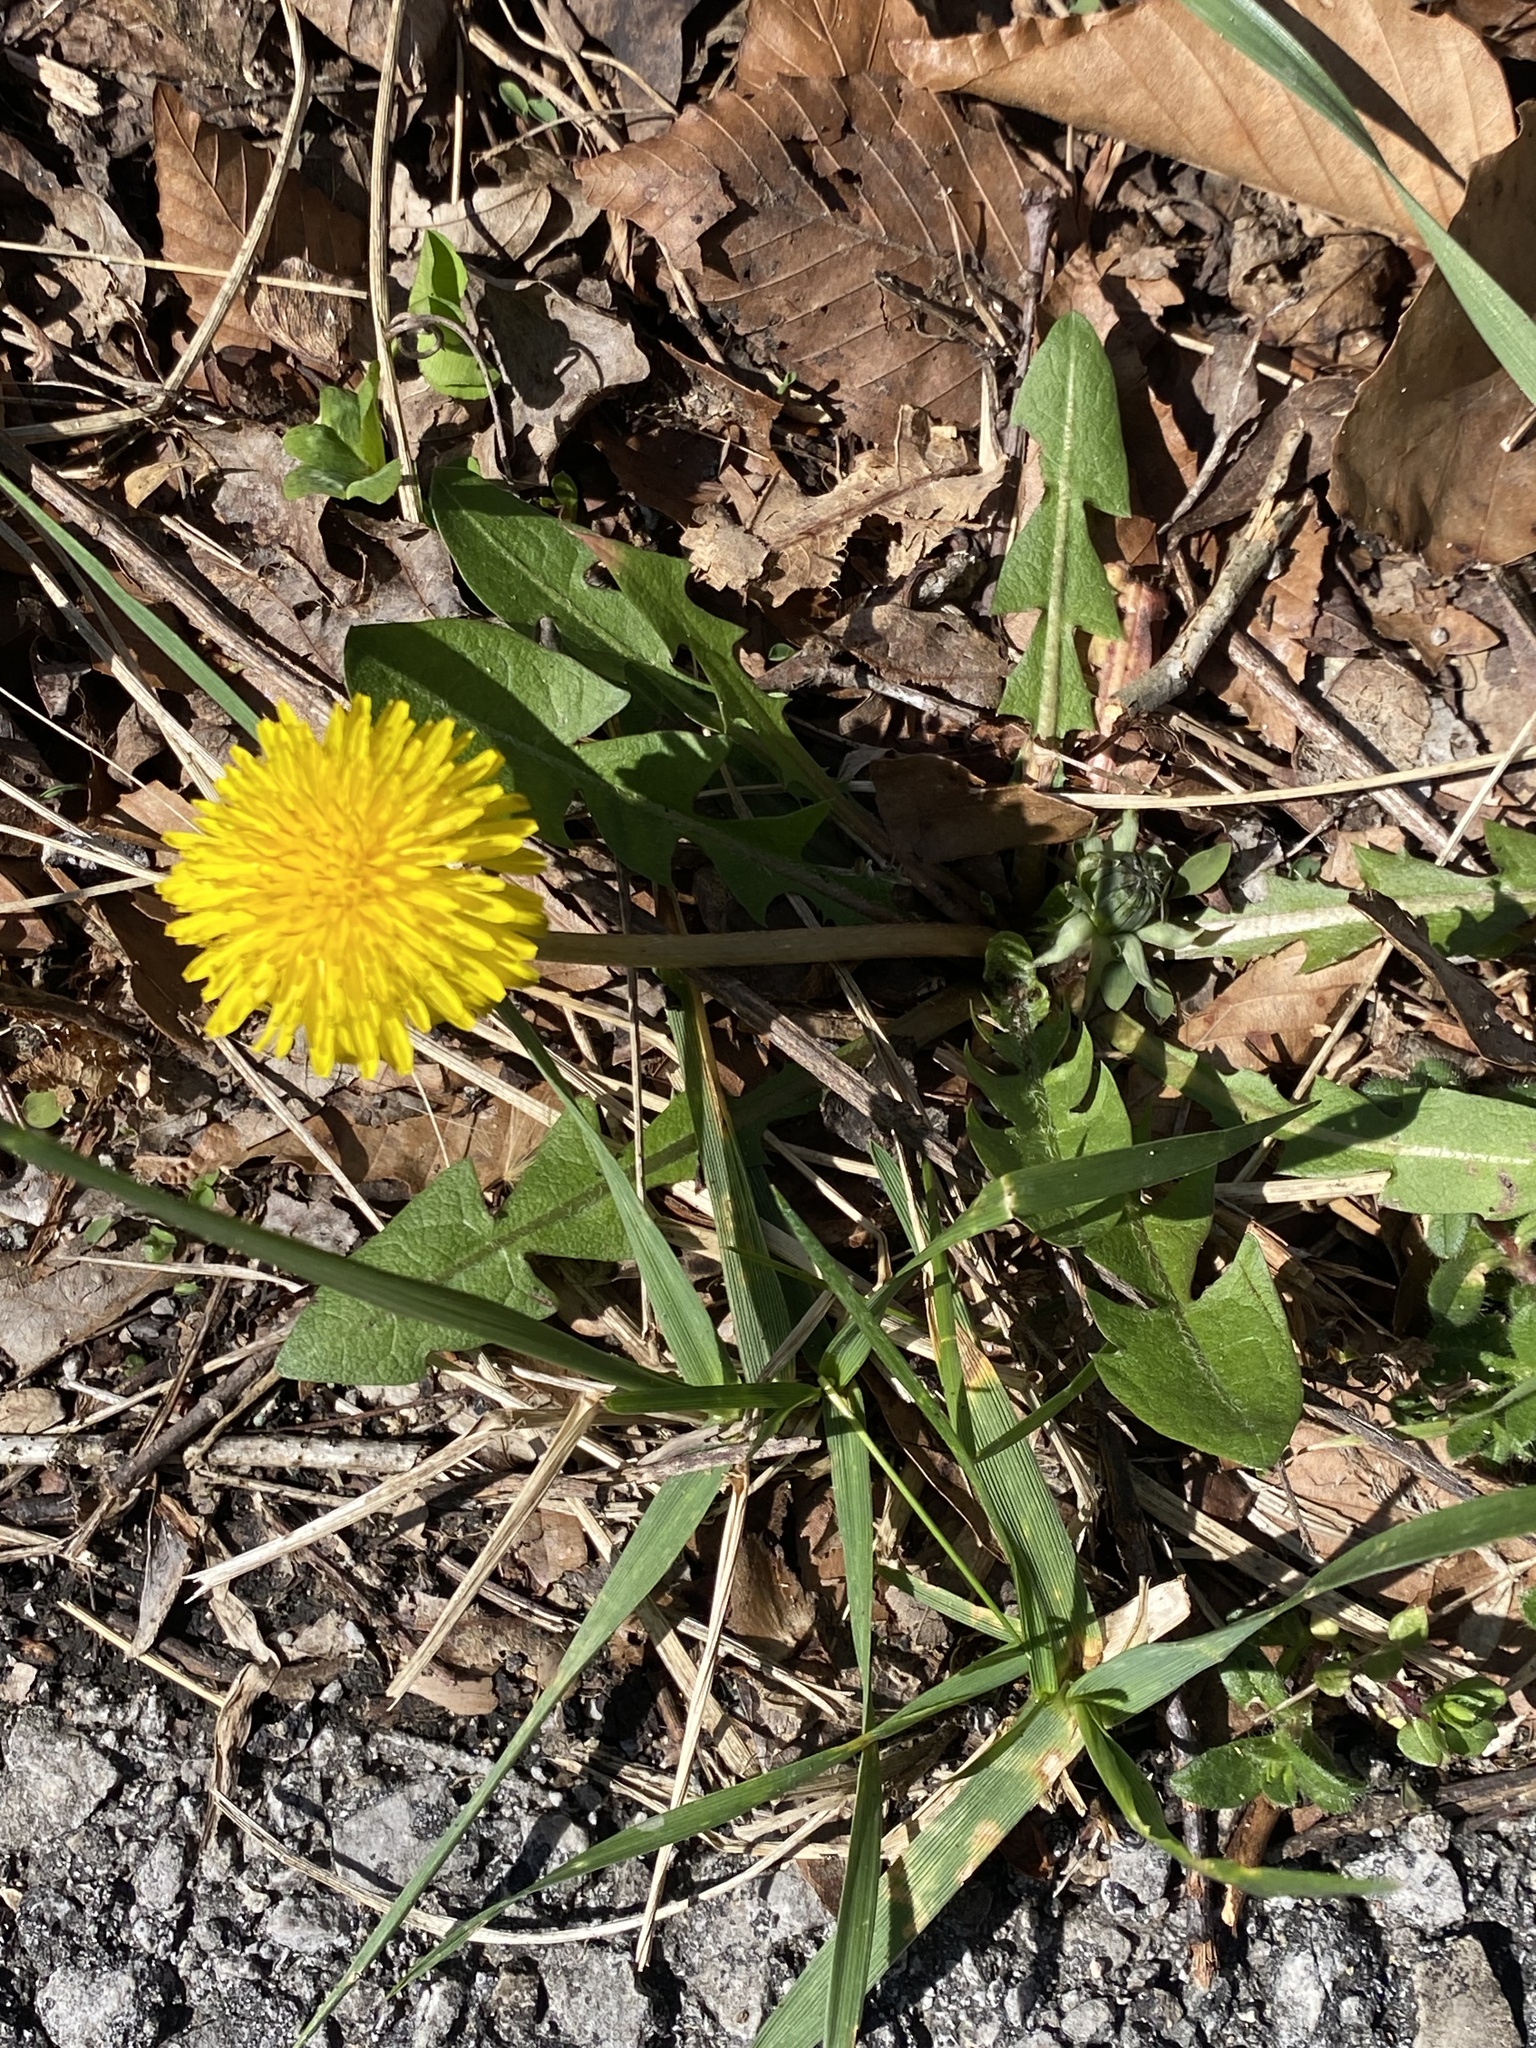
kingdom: Plantae
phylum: Tracheophyta
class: Magnoliopsida
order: Asterales
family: Asteraceae
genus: Taraxacum
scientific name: Taraxacum officinale
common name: Common dandelion
